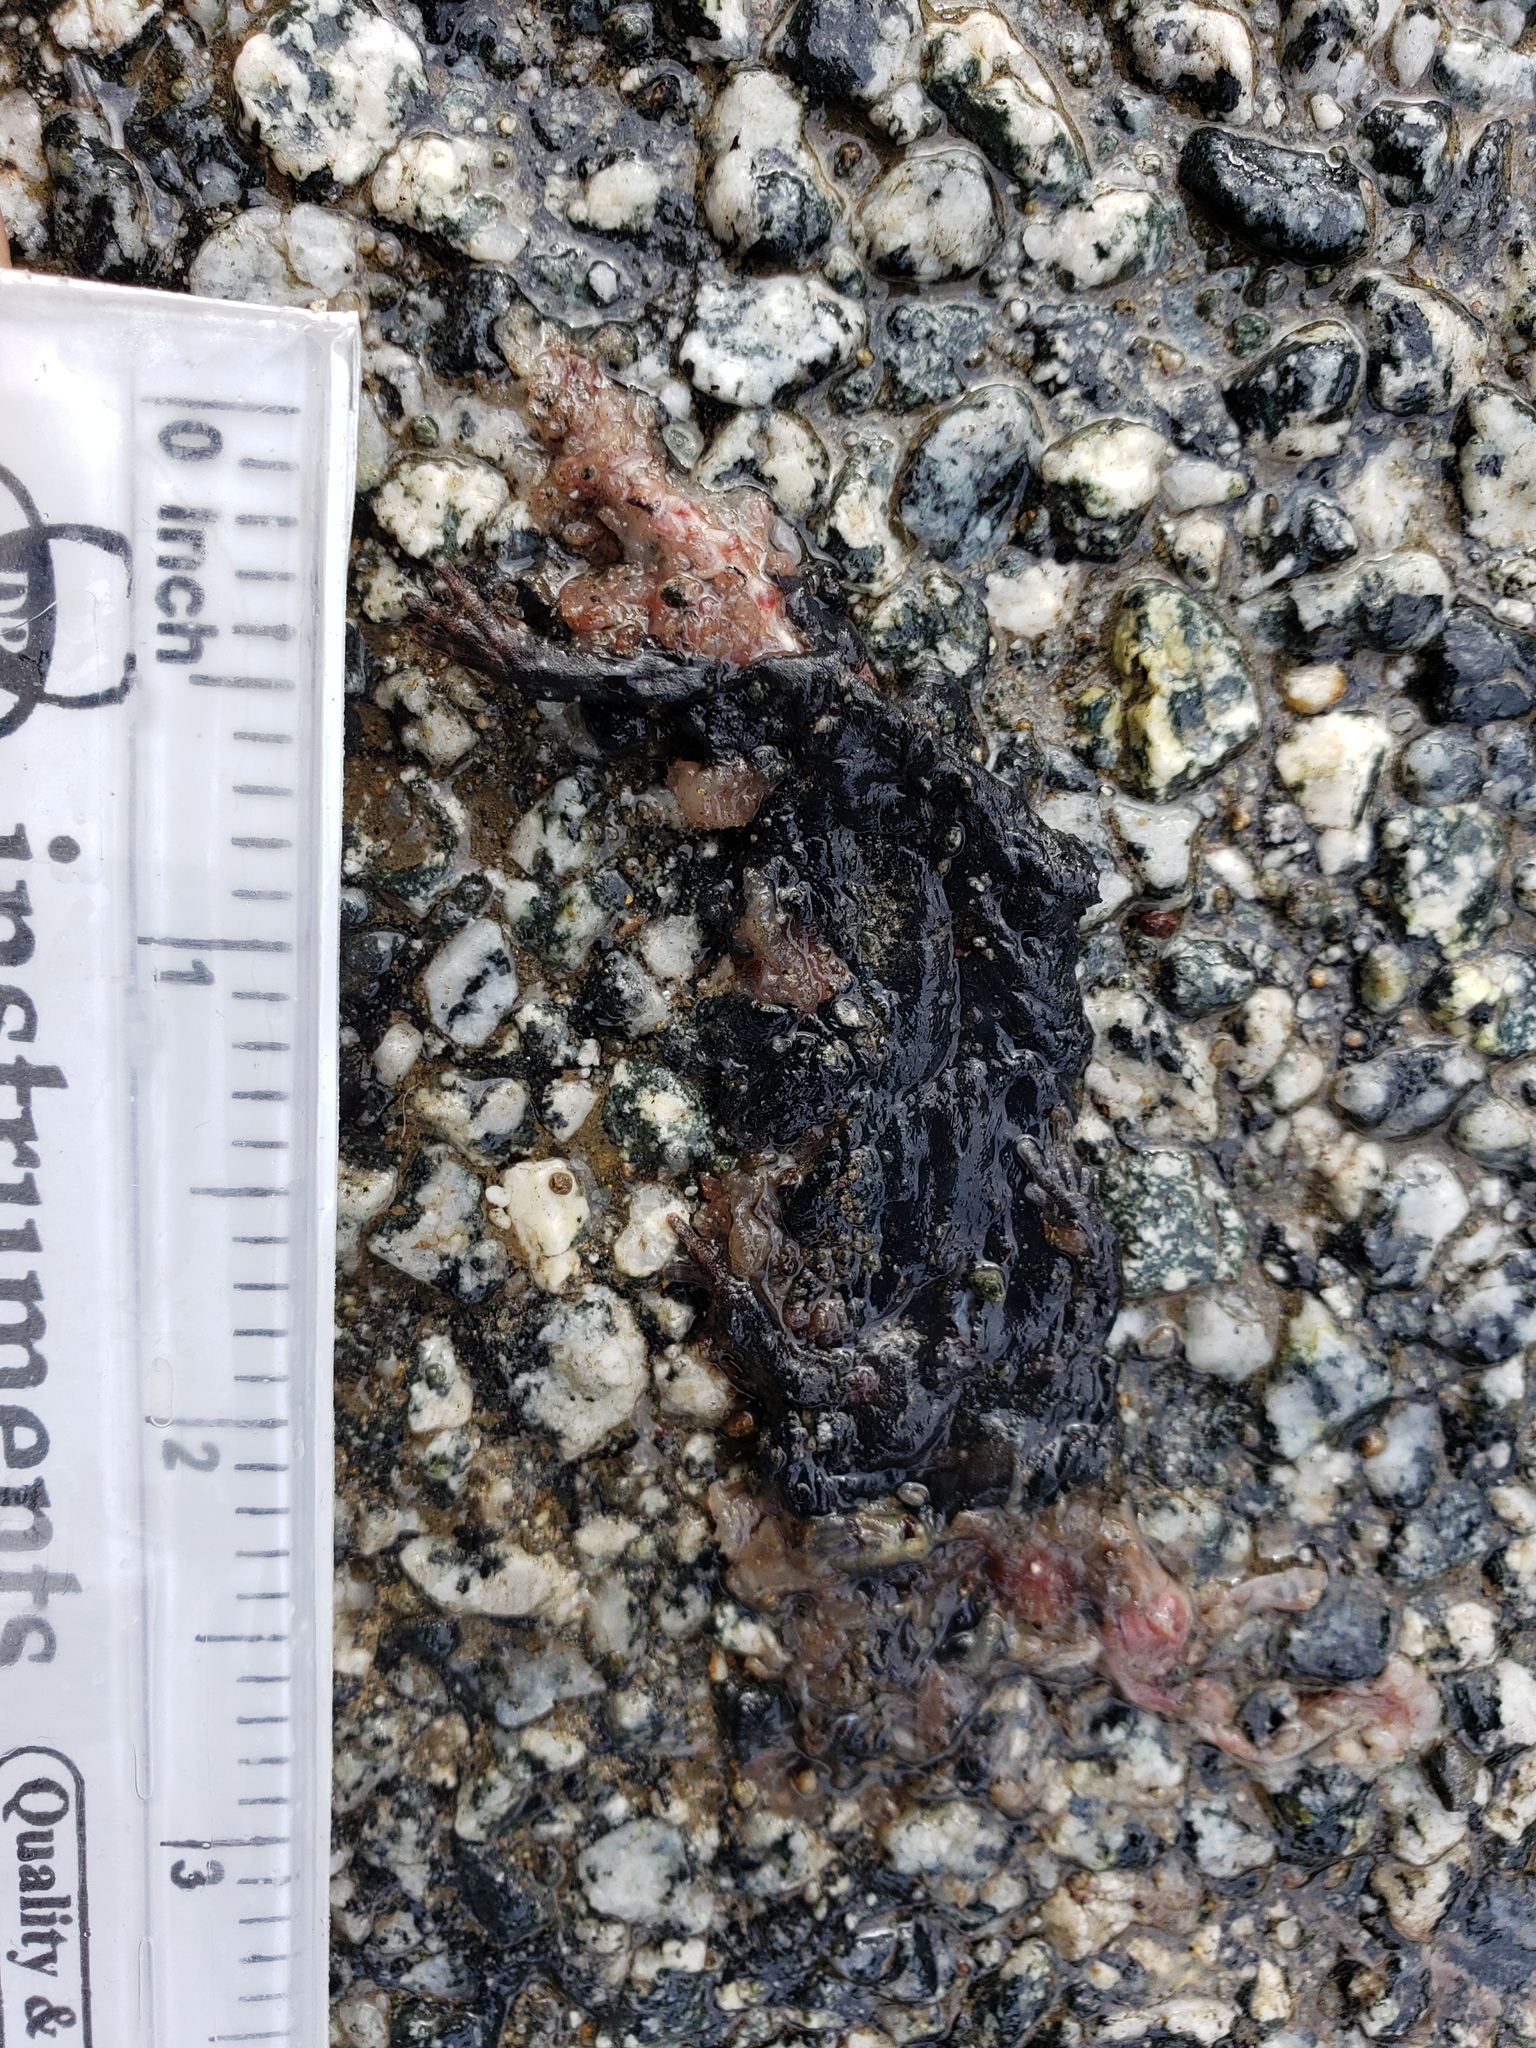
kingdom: Animalia
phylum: Chordata
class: Amphibia
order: Caudata
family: Salamandridae
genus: Taricha
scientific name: Taricha
